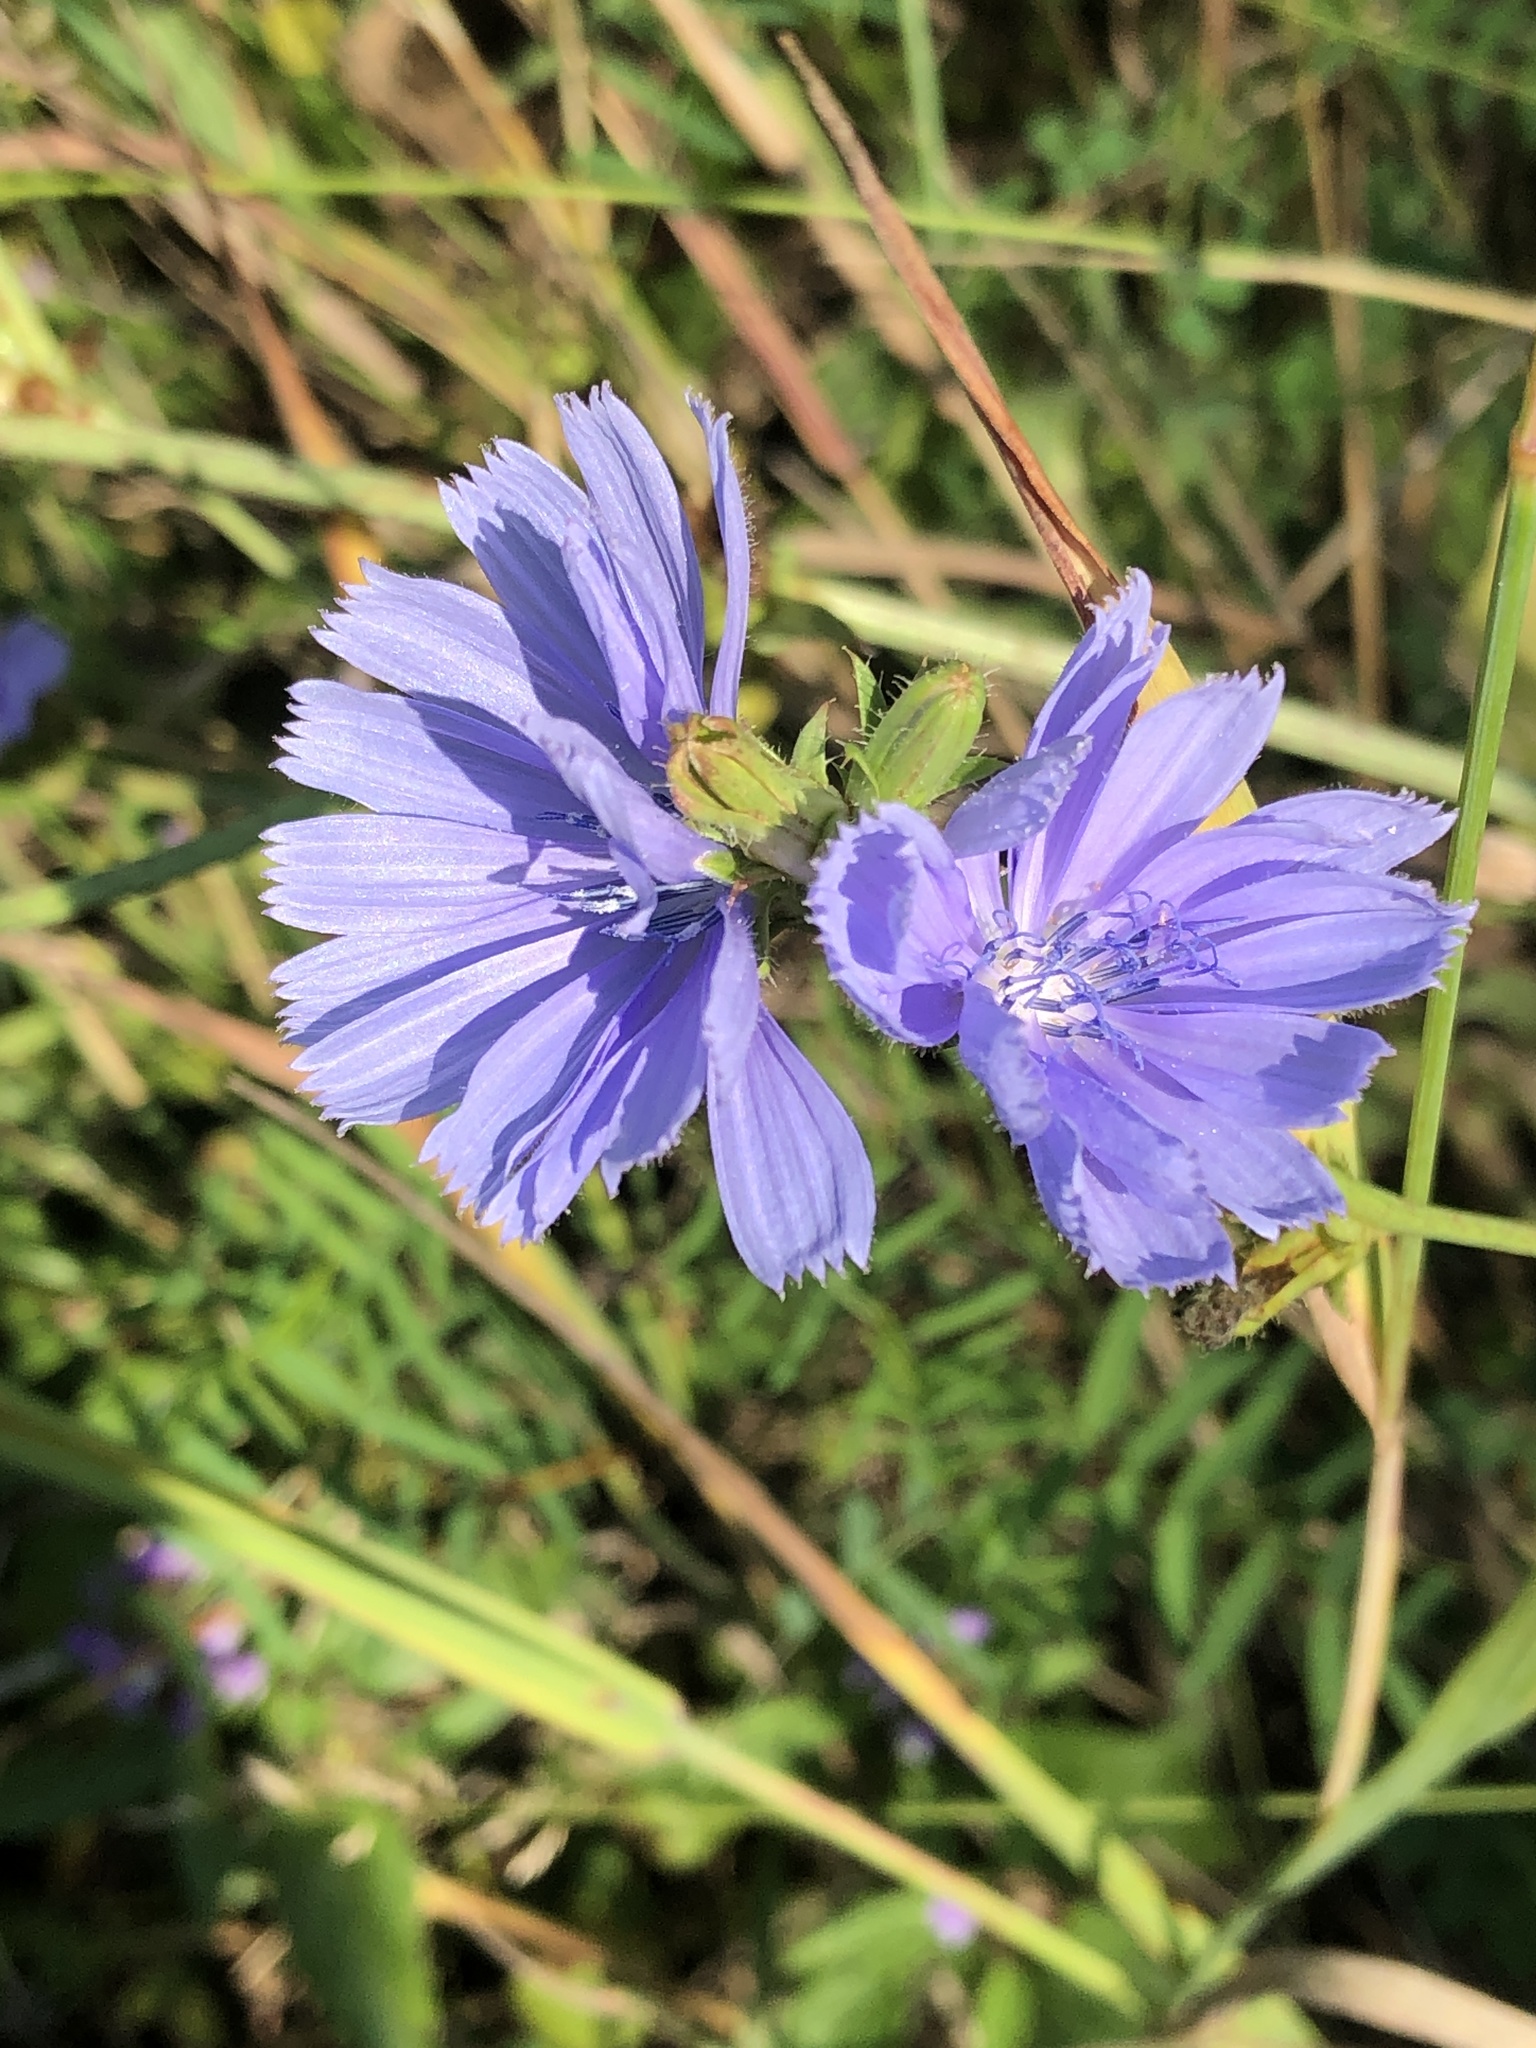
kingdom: Plantae
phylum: Tracheophyta
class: Magnoliopsida
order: Asterales
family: Asteraceae
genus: Cichorium
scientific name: Cichorium intybus
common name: Chicory
